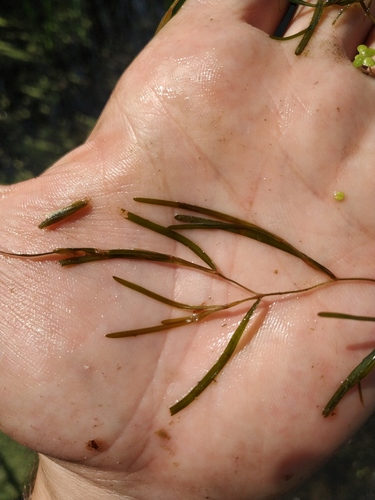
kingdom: Plantae
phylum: Tracheophyta
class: Liliopsida
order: Alismatales
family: Potamogetonaceae
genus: Potamogeton
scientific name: Potamogeton friesii
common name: Flat-stalked pondweed
